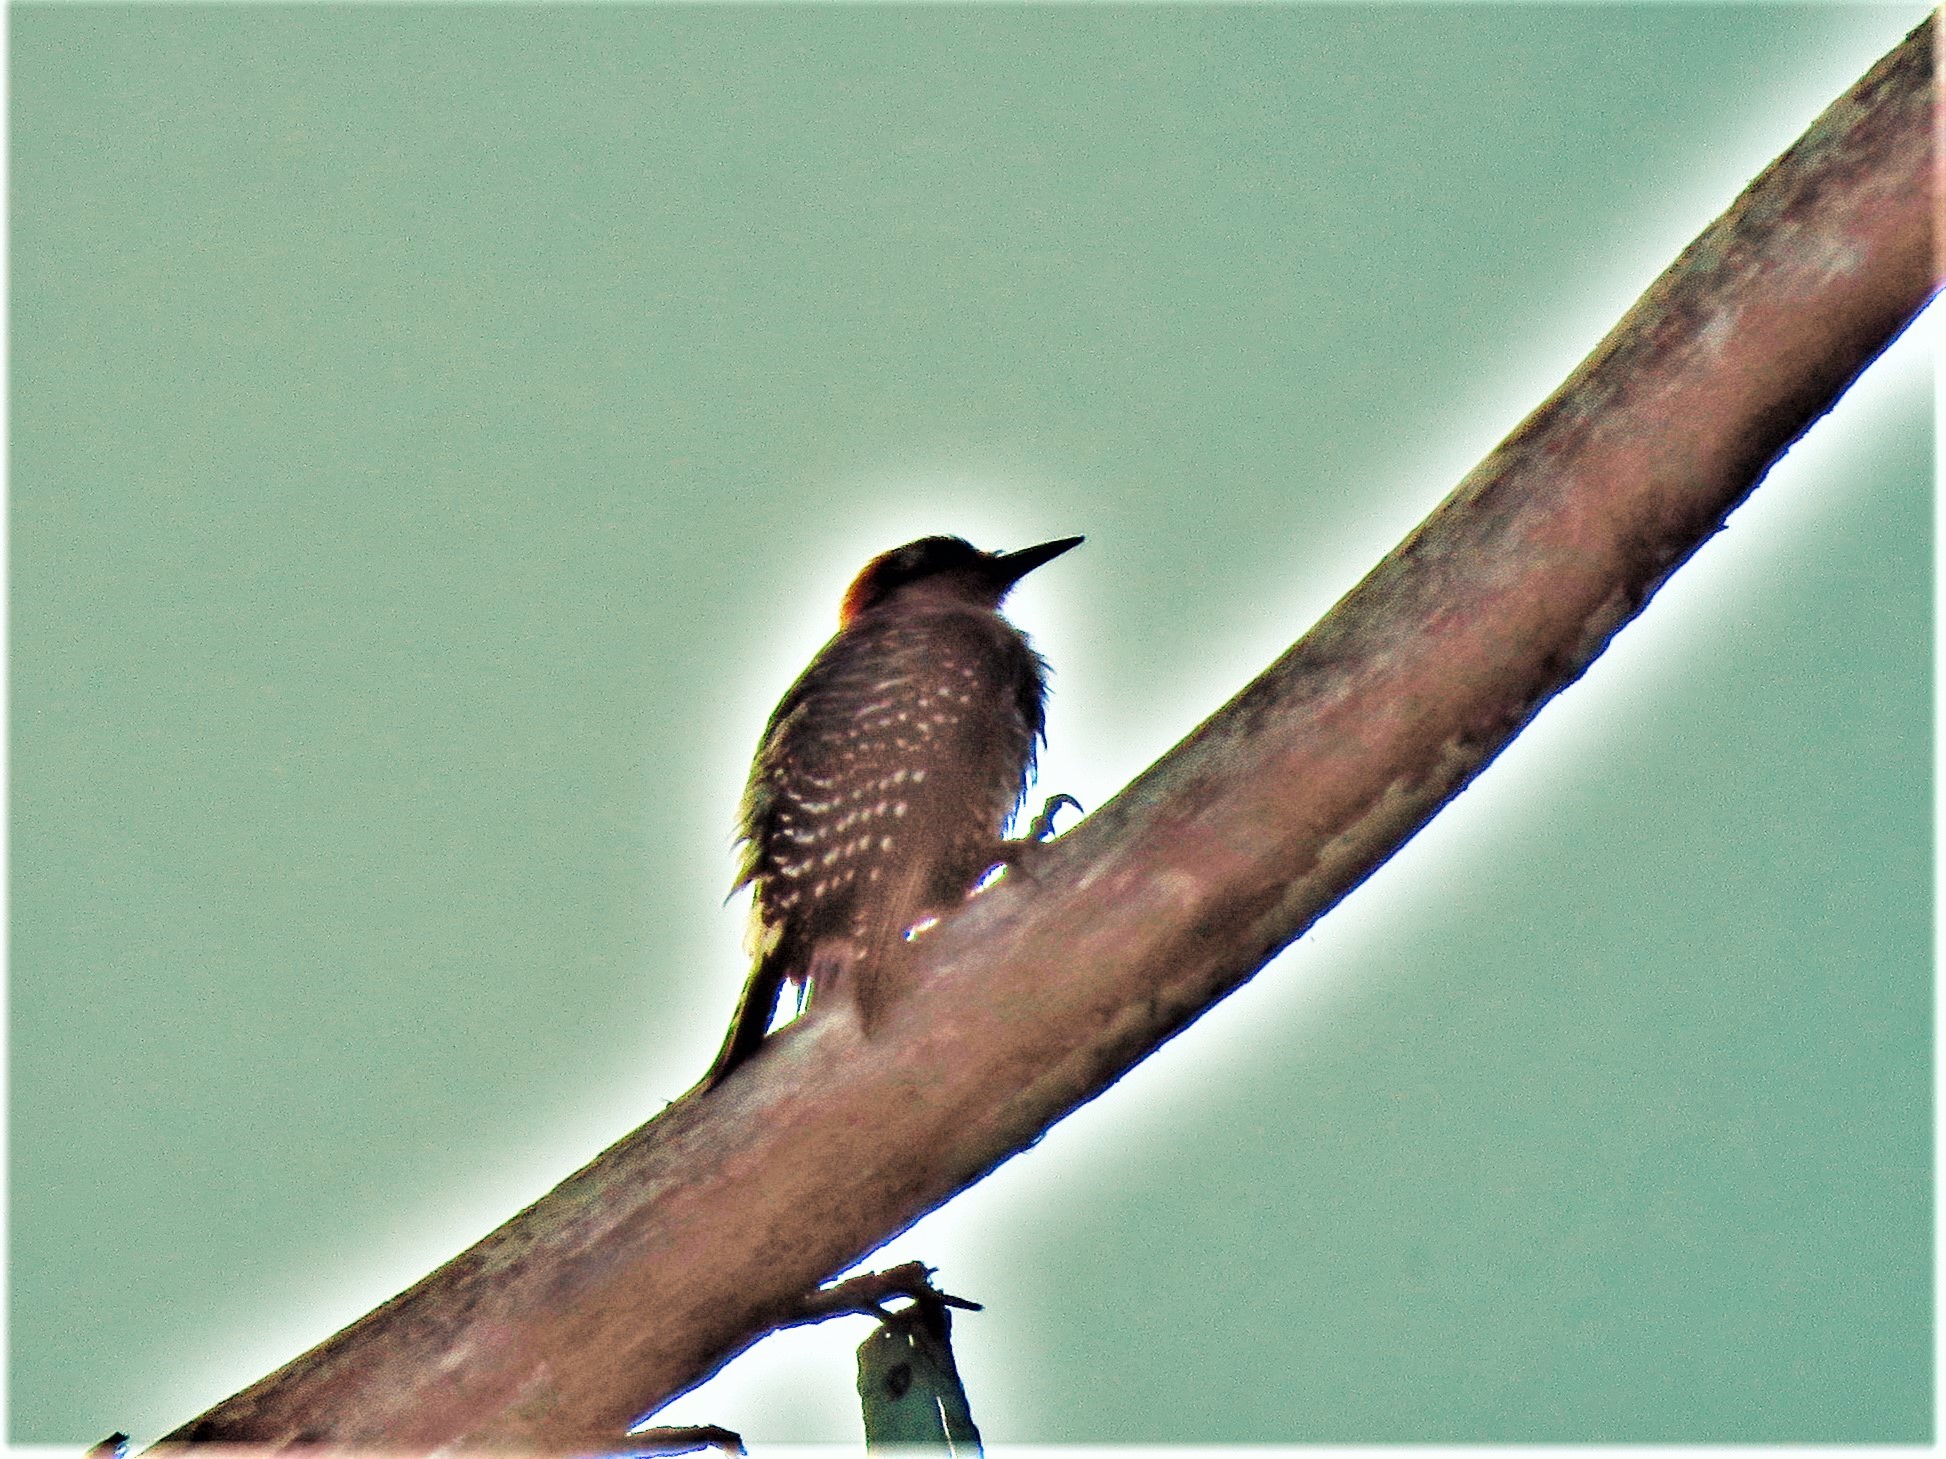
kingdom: Animalia
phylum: Chordata
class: Aves
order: Piciformes
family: Picidae
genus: Melanerpes
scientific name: Melanerpes pucherani
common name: Black-cheeked woodpecker
